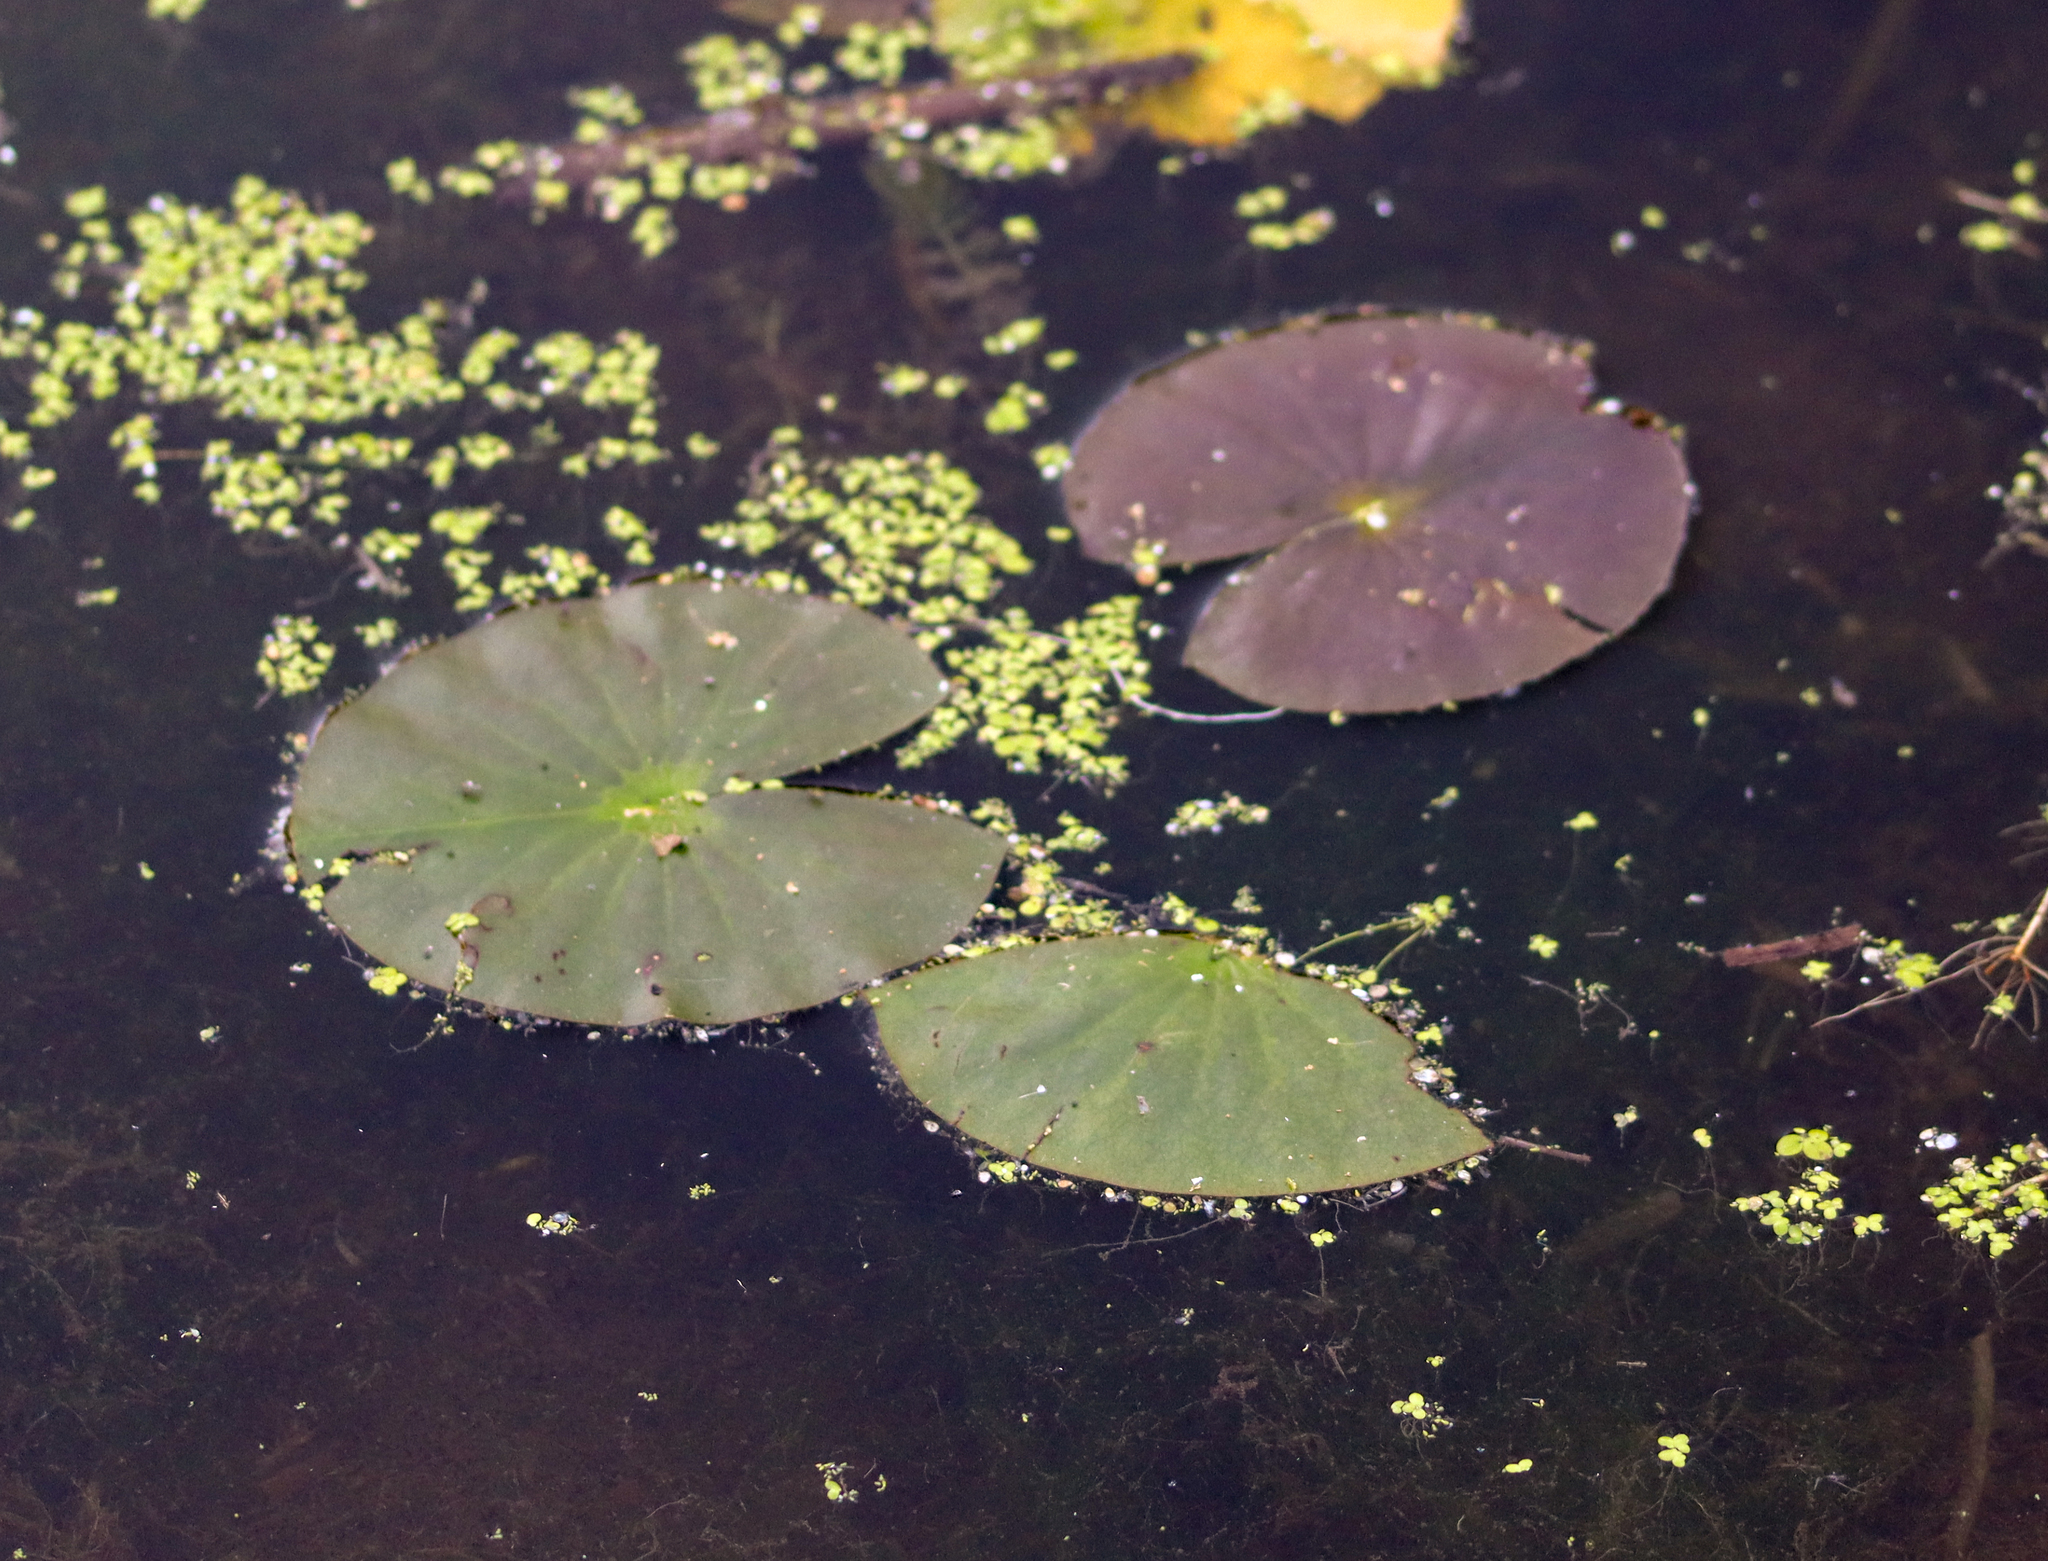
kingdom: Plantae
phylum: Tracheophyta
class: Magnoliopsida
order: Nymphaeales
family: Nymphaeaceae
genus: Nymphaea
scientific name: Nymphaea odorata
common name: Fragrant water-lily
